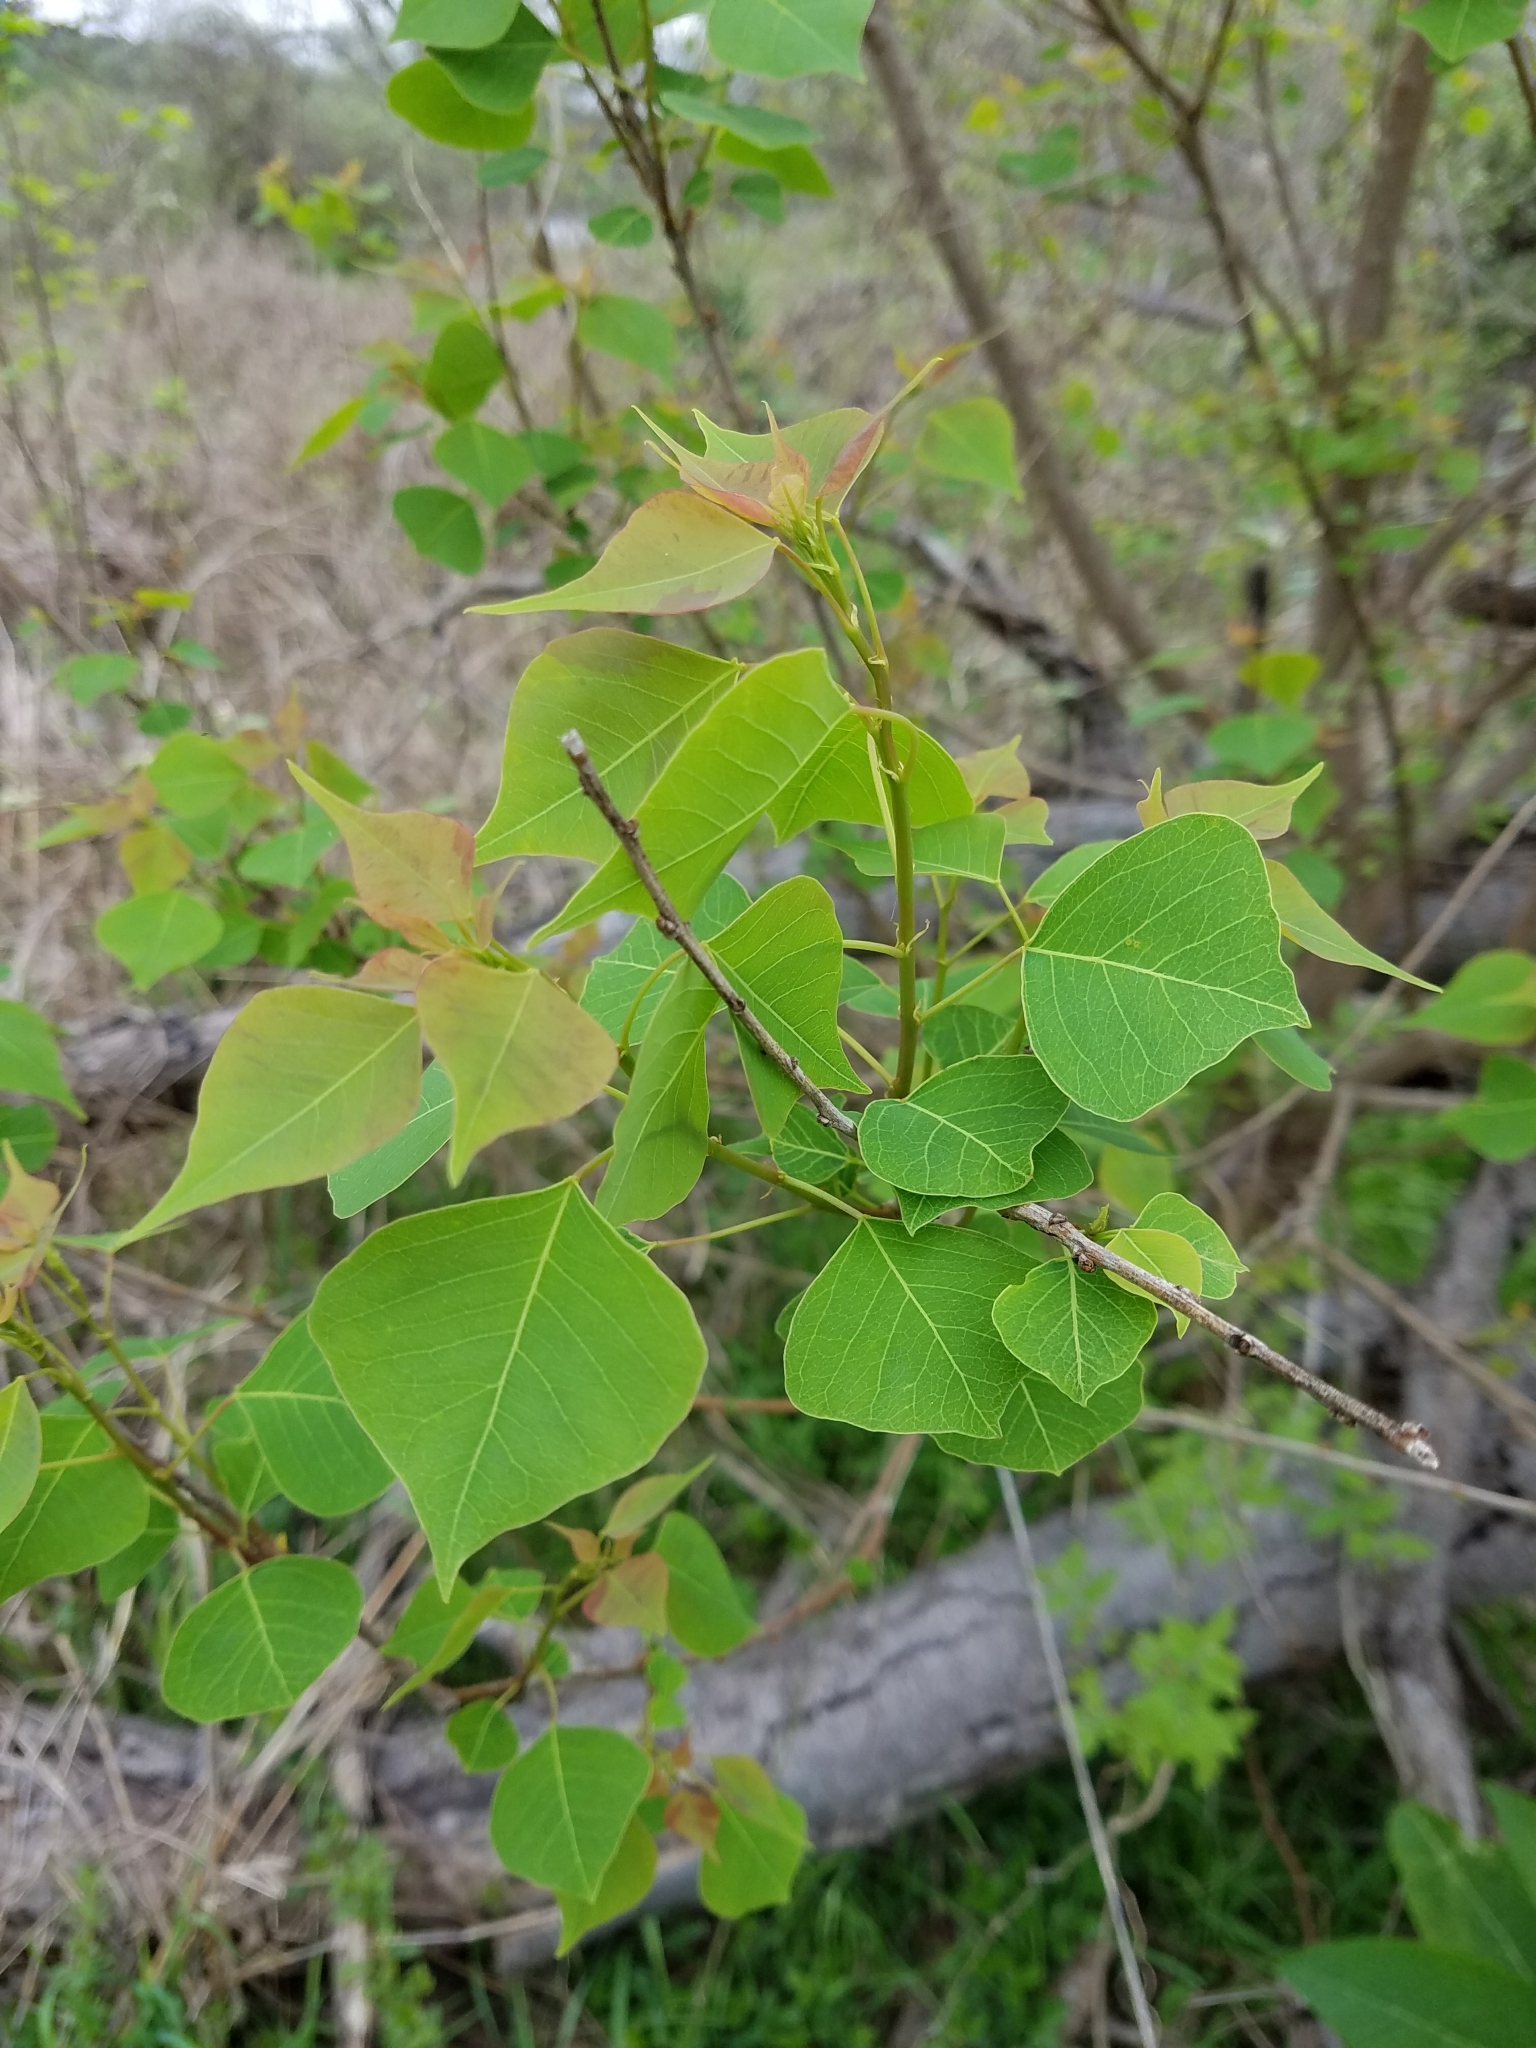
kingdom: Plantae
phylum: Tracheophyta
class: Magnoliopsida
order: Malpighiales
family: Euphorbiaceae
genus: Triadica
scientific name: Triadica sebifera
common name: Chinese tallow
